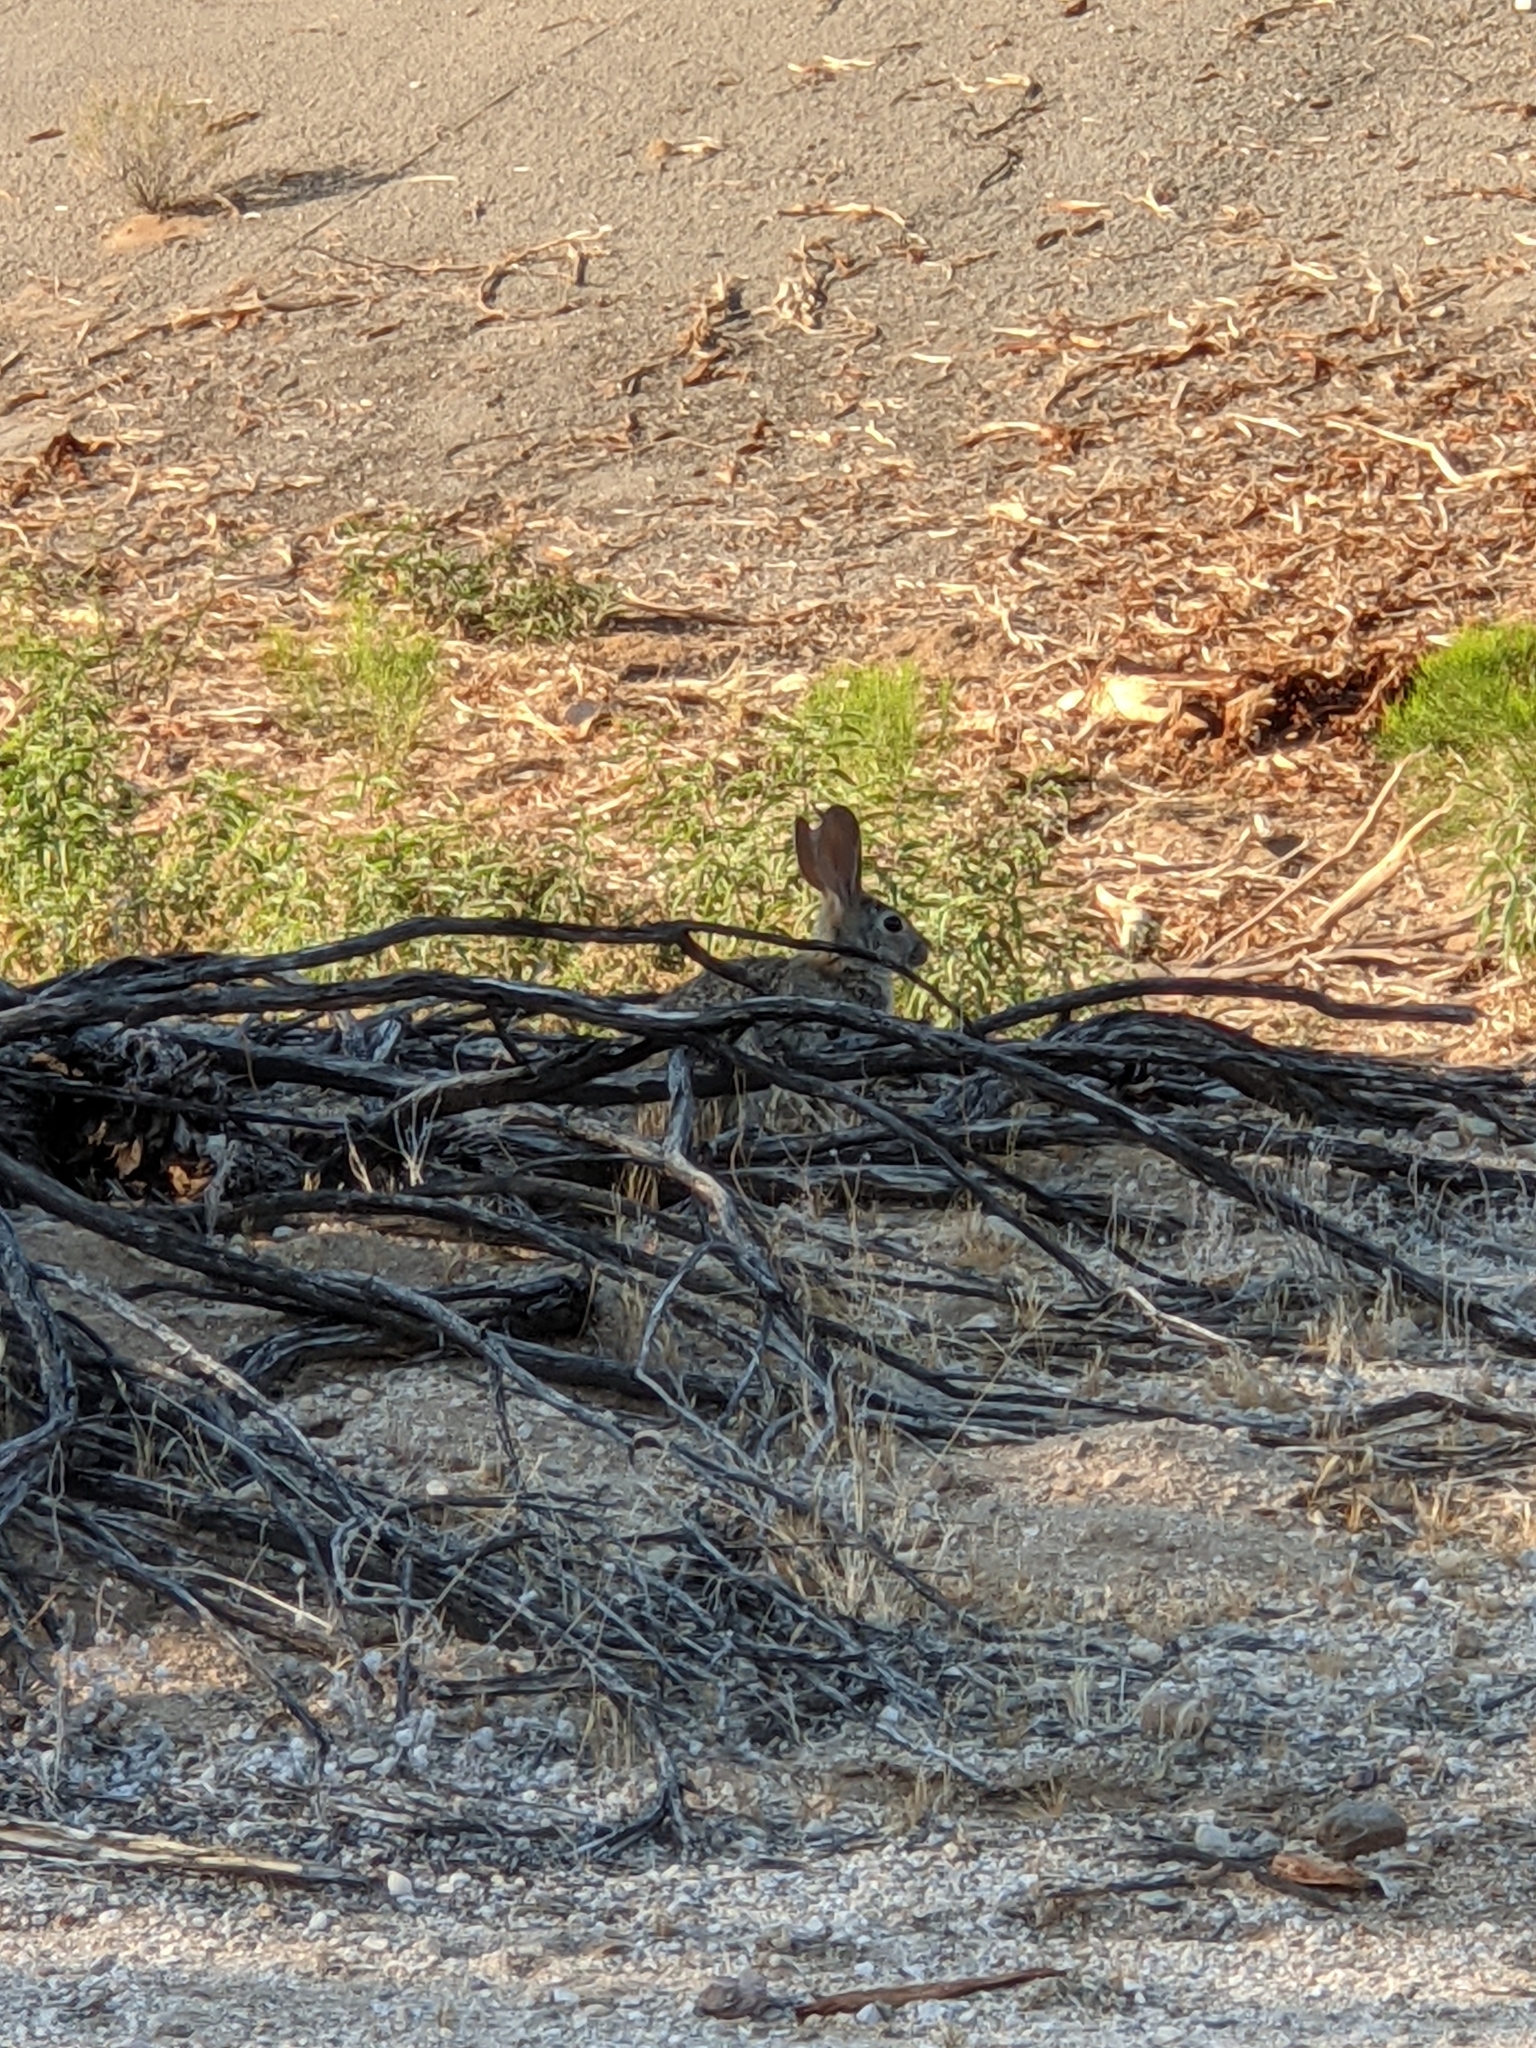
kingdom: Animalia
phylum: Chordata
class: Mammalia
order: Lagomorpha
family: Leporidae
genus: Sylvilagus
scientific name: Sylvilagus audubonii
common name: Desert cottontail
